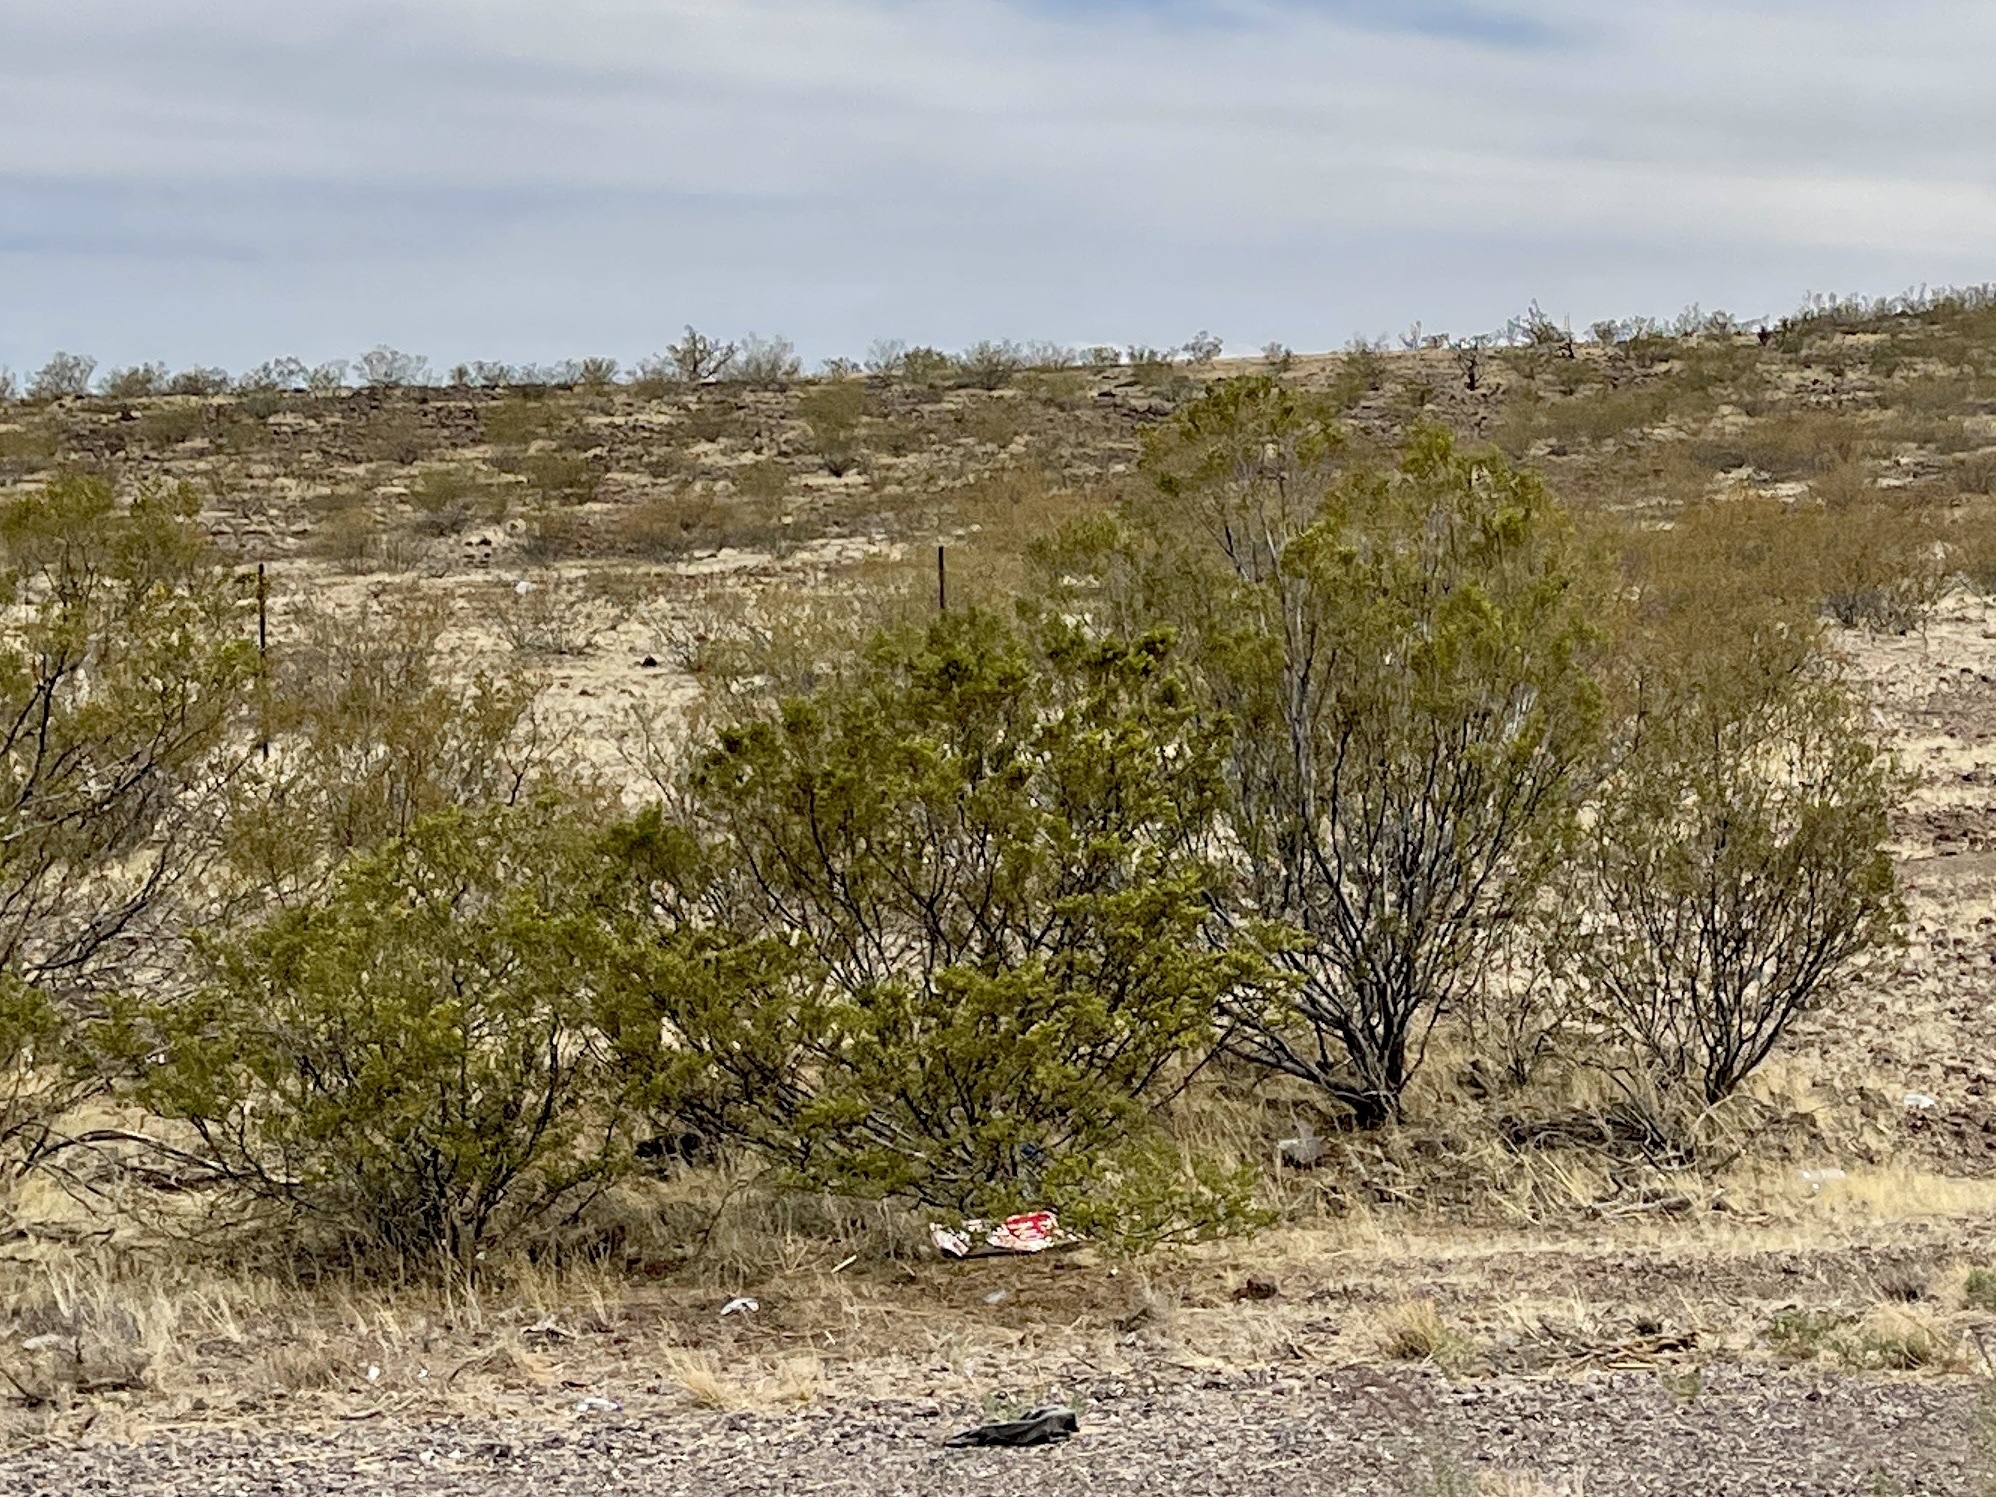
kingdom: Plantae
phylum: Tracheophyta
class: Magnoliopsida
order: Zygophyllales
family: Zygophyllaceae
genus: Larrea
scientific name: Larrea tridentata
